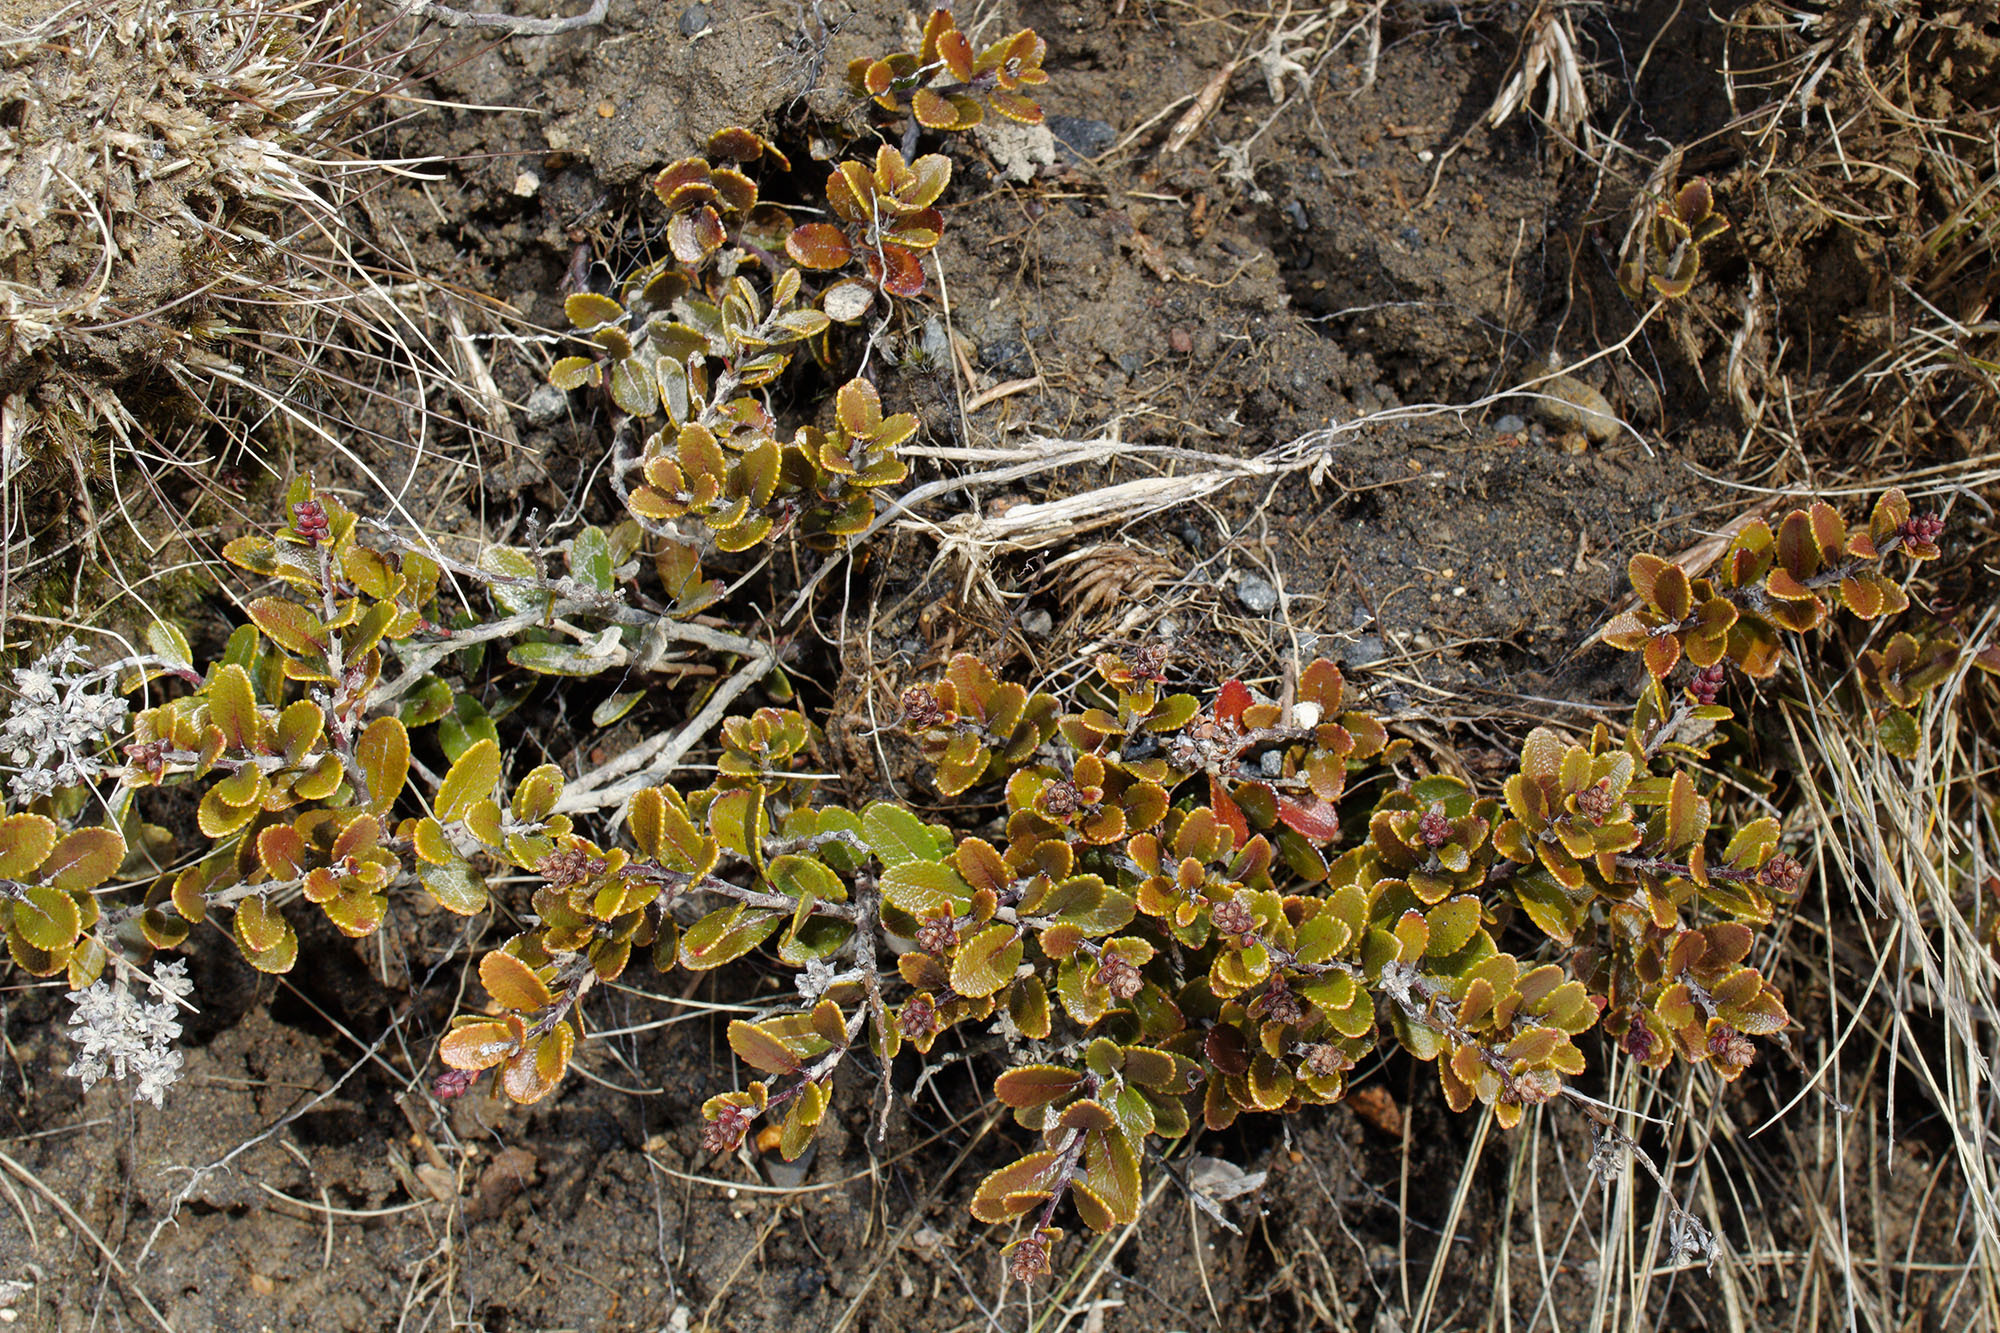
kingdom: Plantae
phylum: Tracheophyta
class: Magnoliopsida
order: Ericales
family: Ericaceae
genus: Gaultheria
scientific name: Gaultheria colensoi
